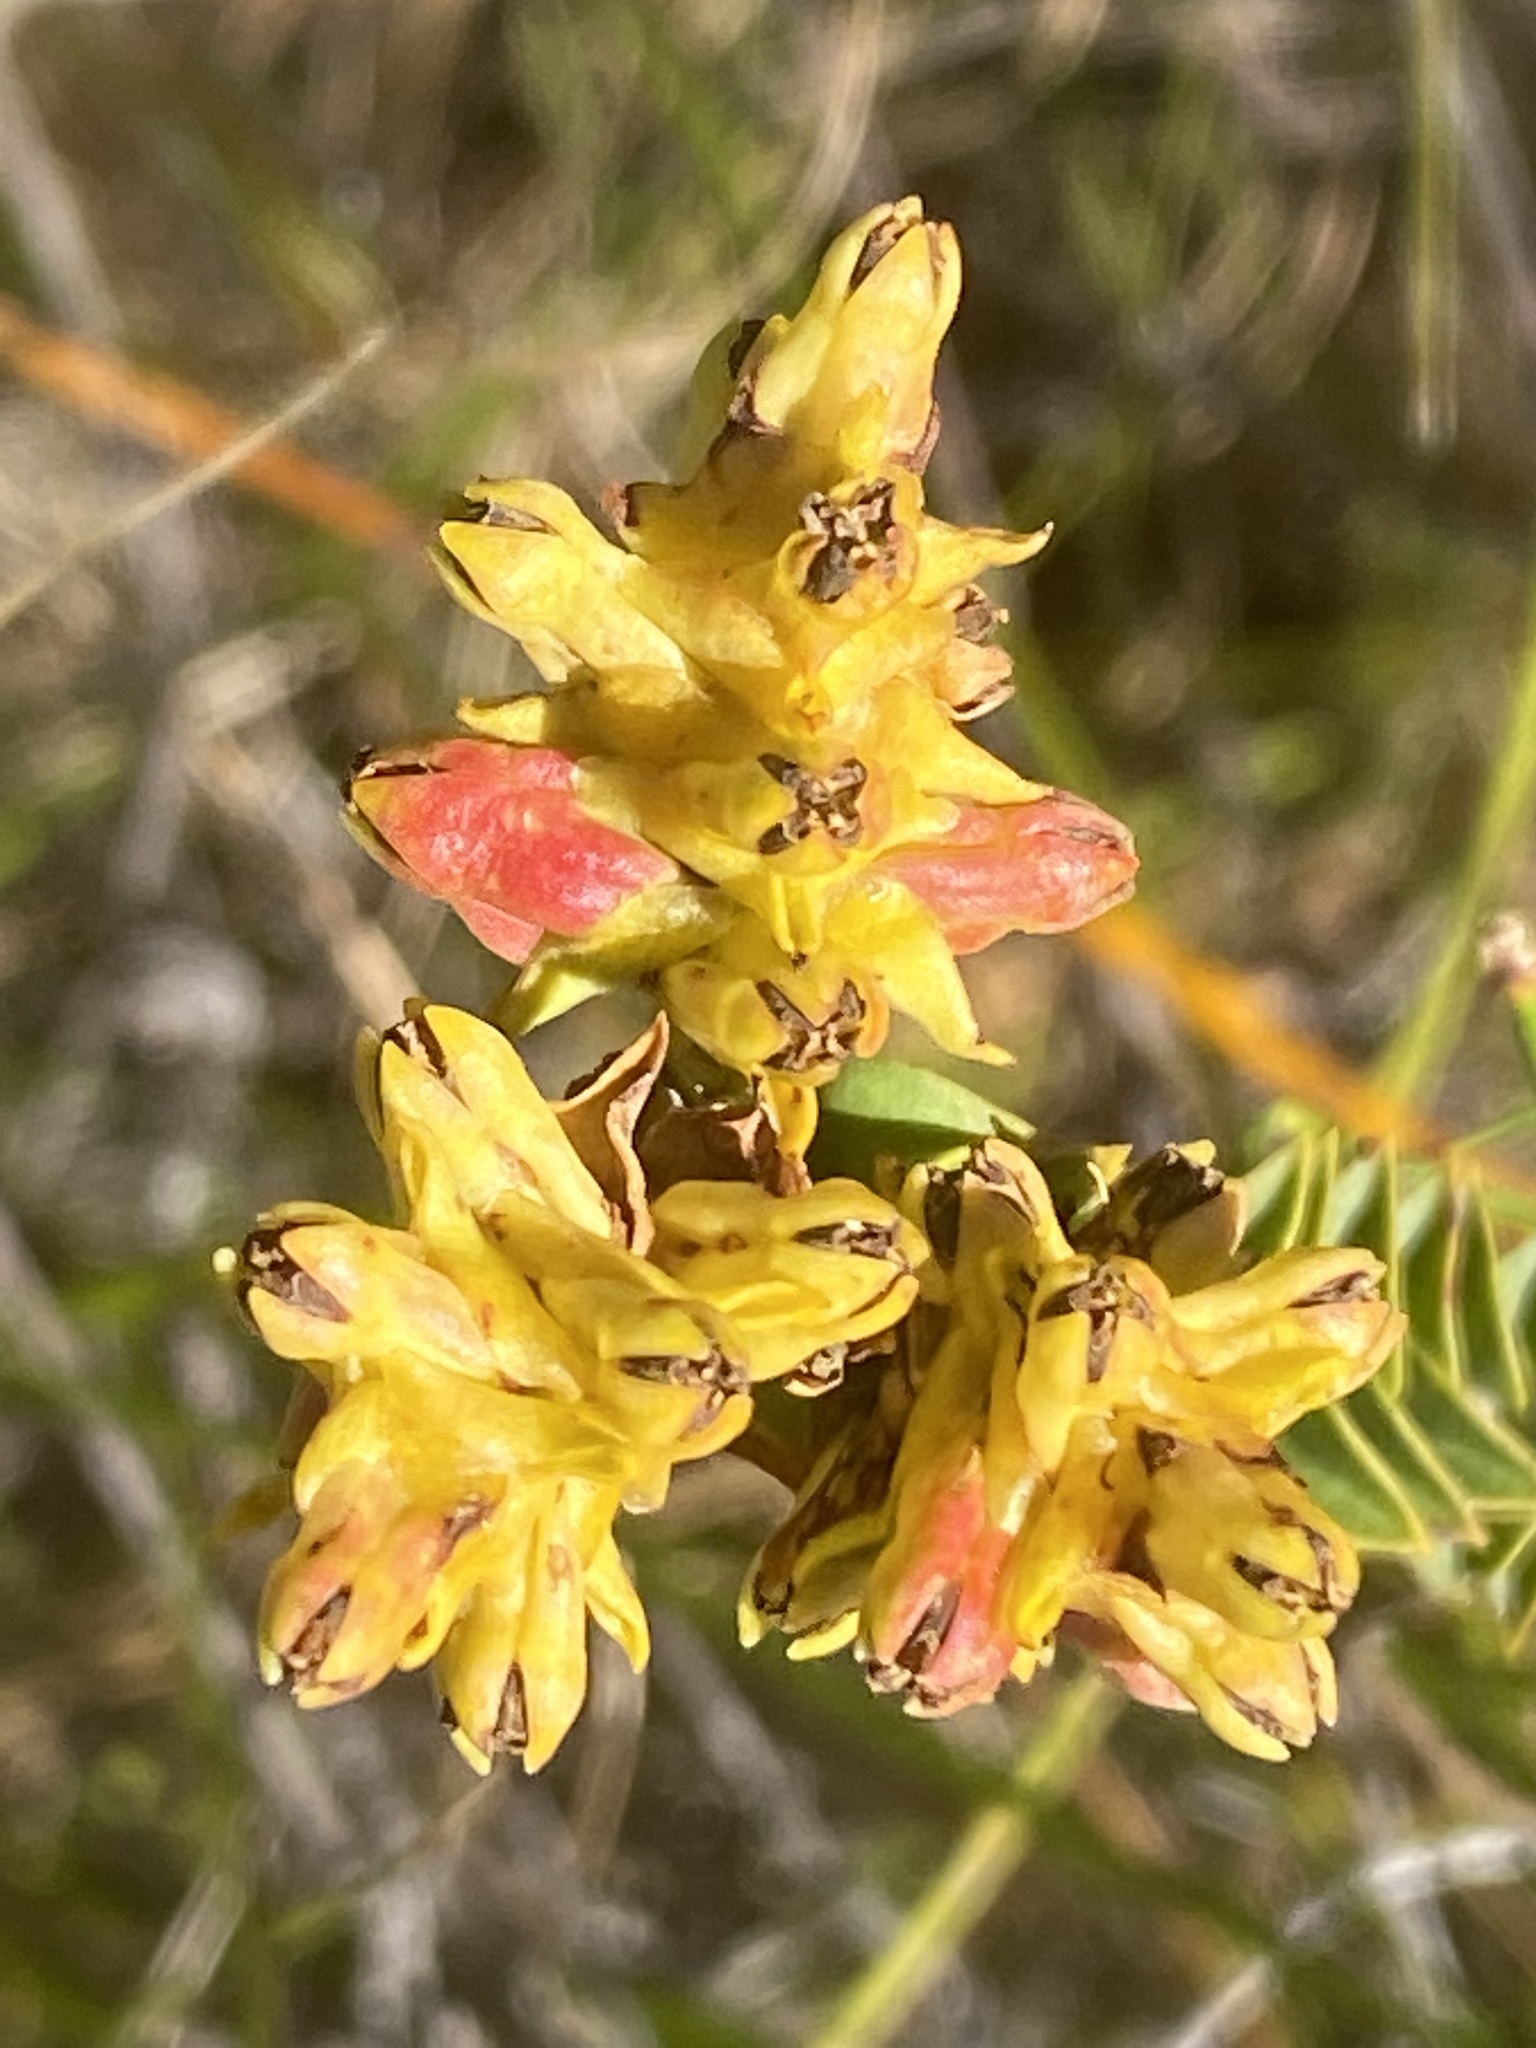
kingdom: Plantae
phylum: Tracheophyta
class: Magnoliopsida
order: Myrtales
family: Penaeaceae
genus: Penaea
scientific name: Penaea mucronata
